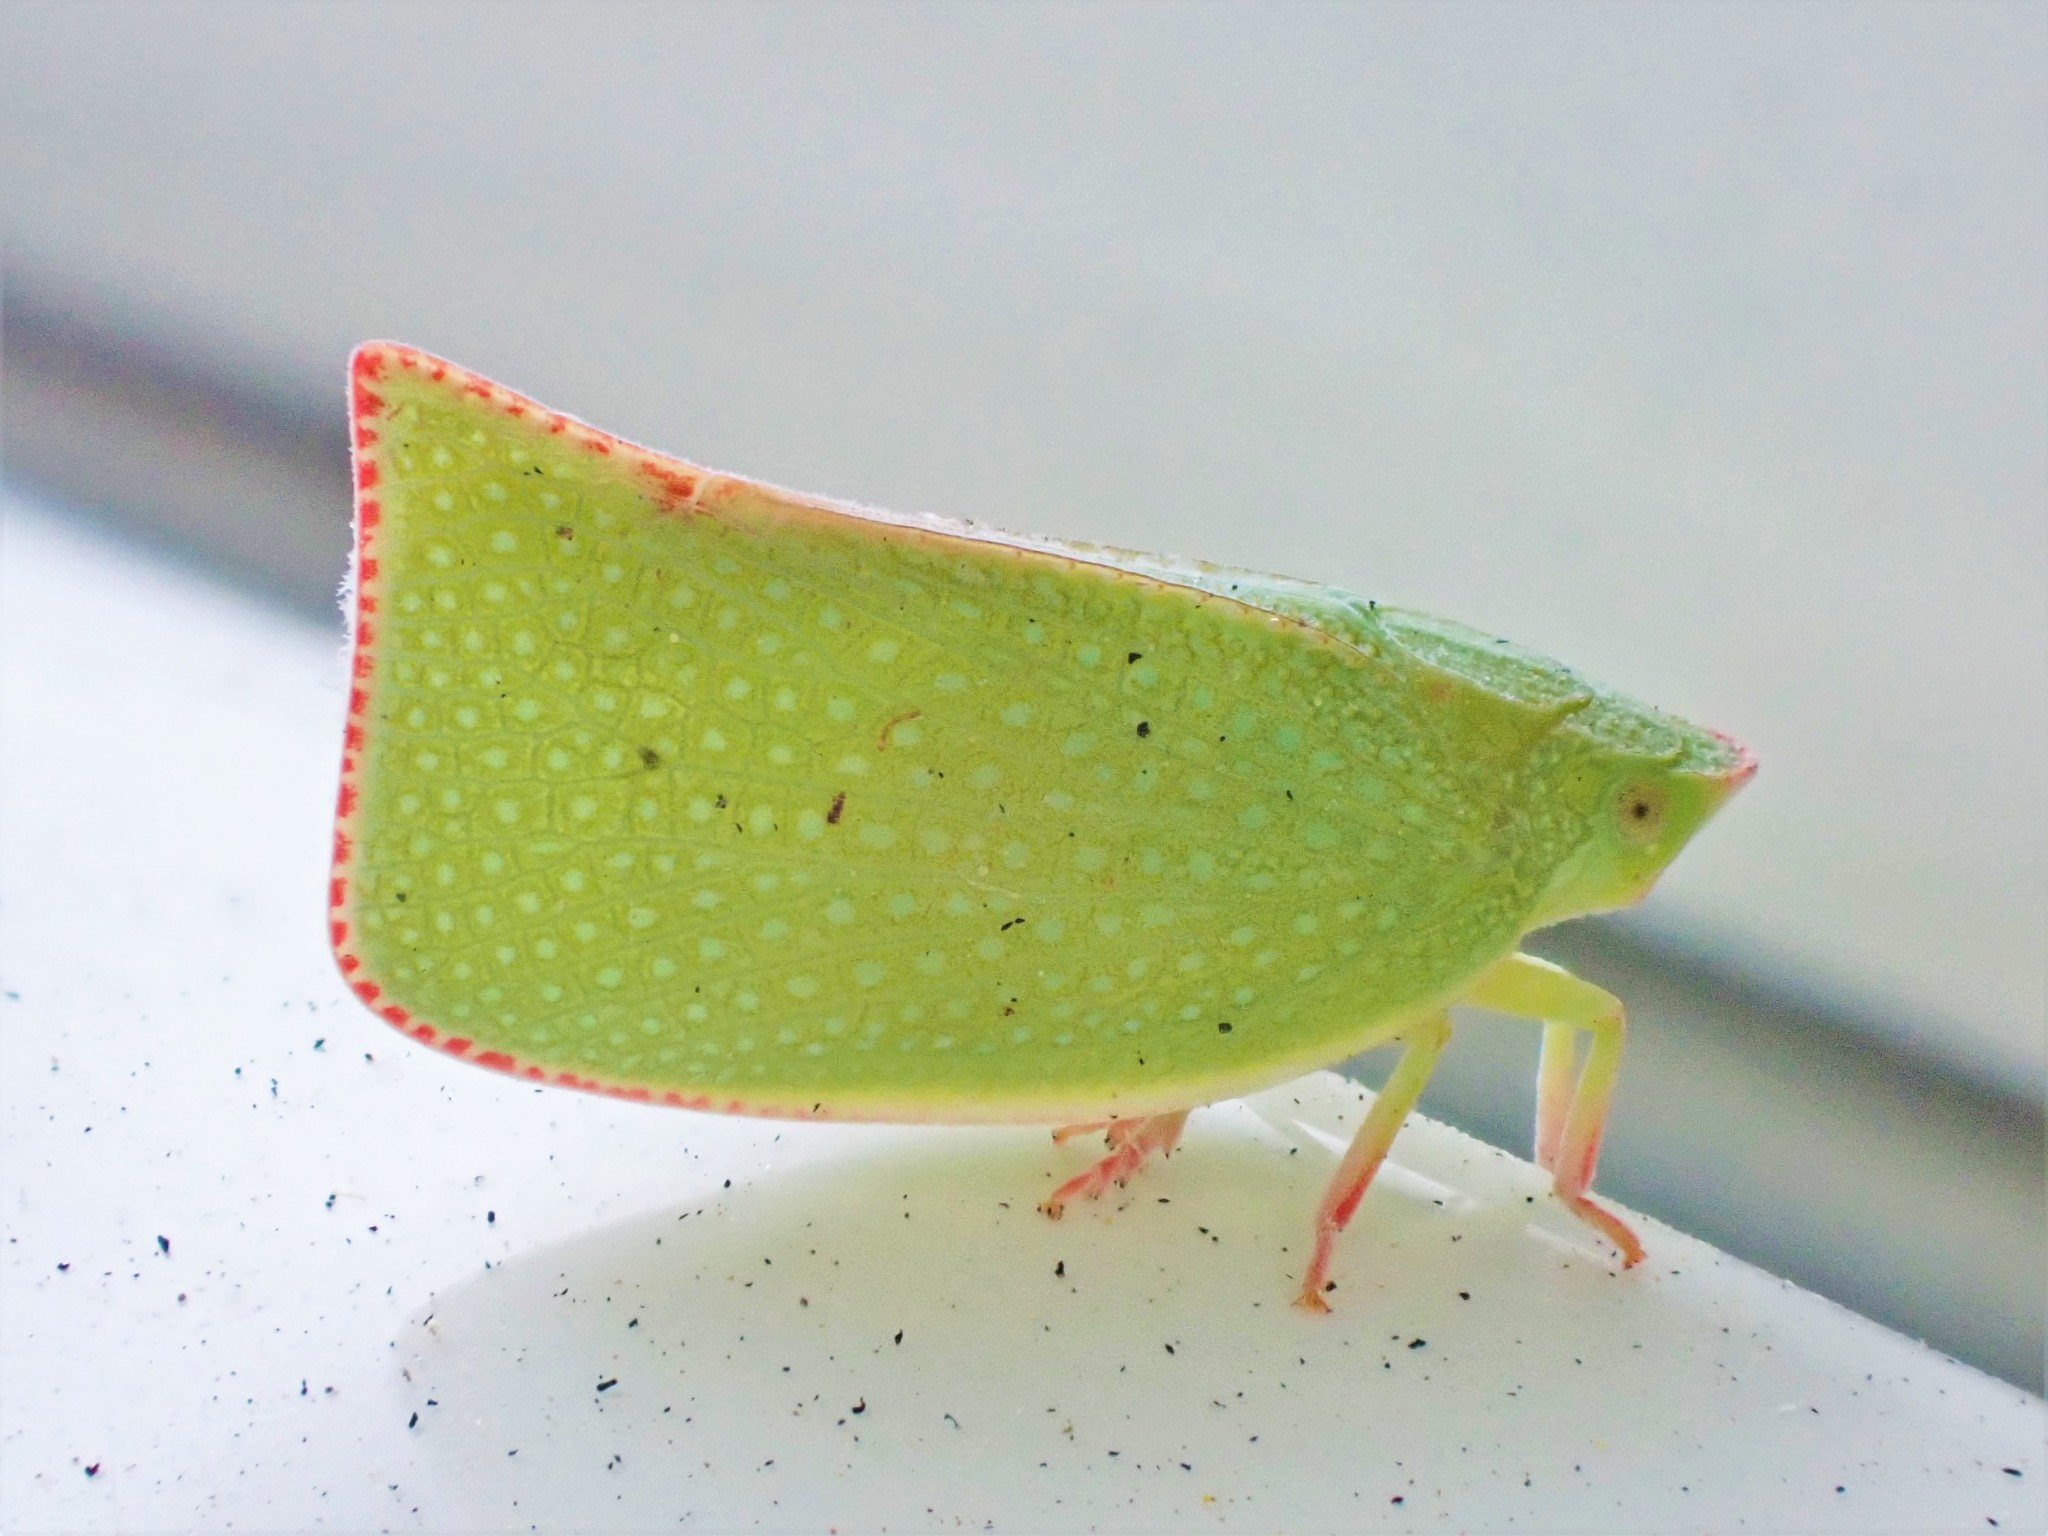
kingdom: Animalia
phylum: Arthropoda
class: Insecta
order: Hemiptera
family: Flatidae
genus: Siphanta
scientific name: Siphanta acuta
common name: Torpedo bug
